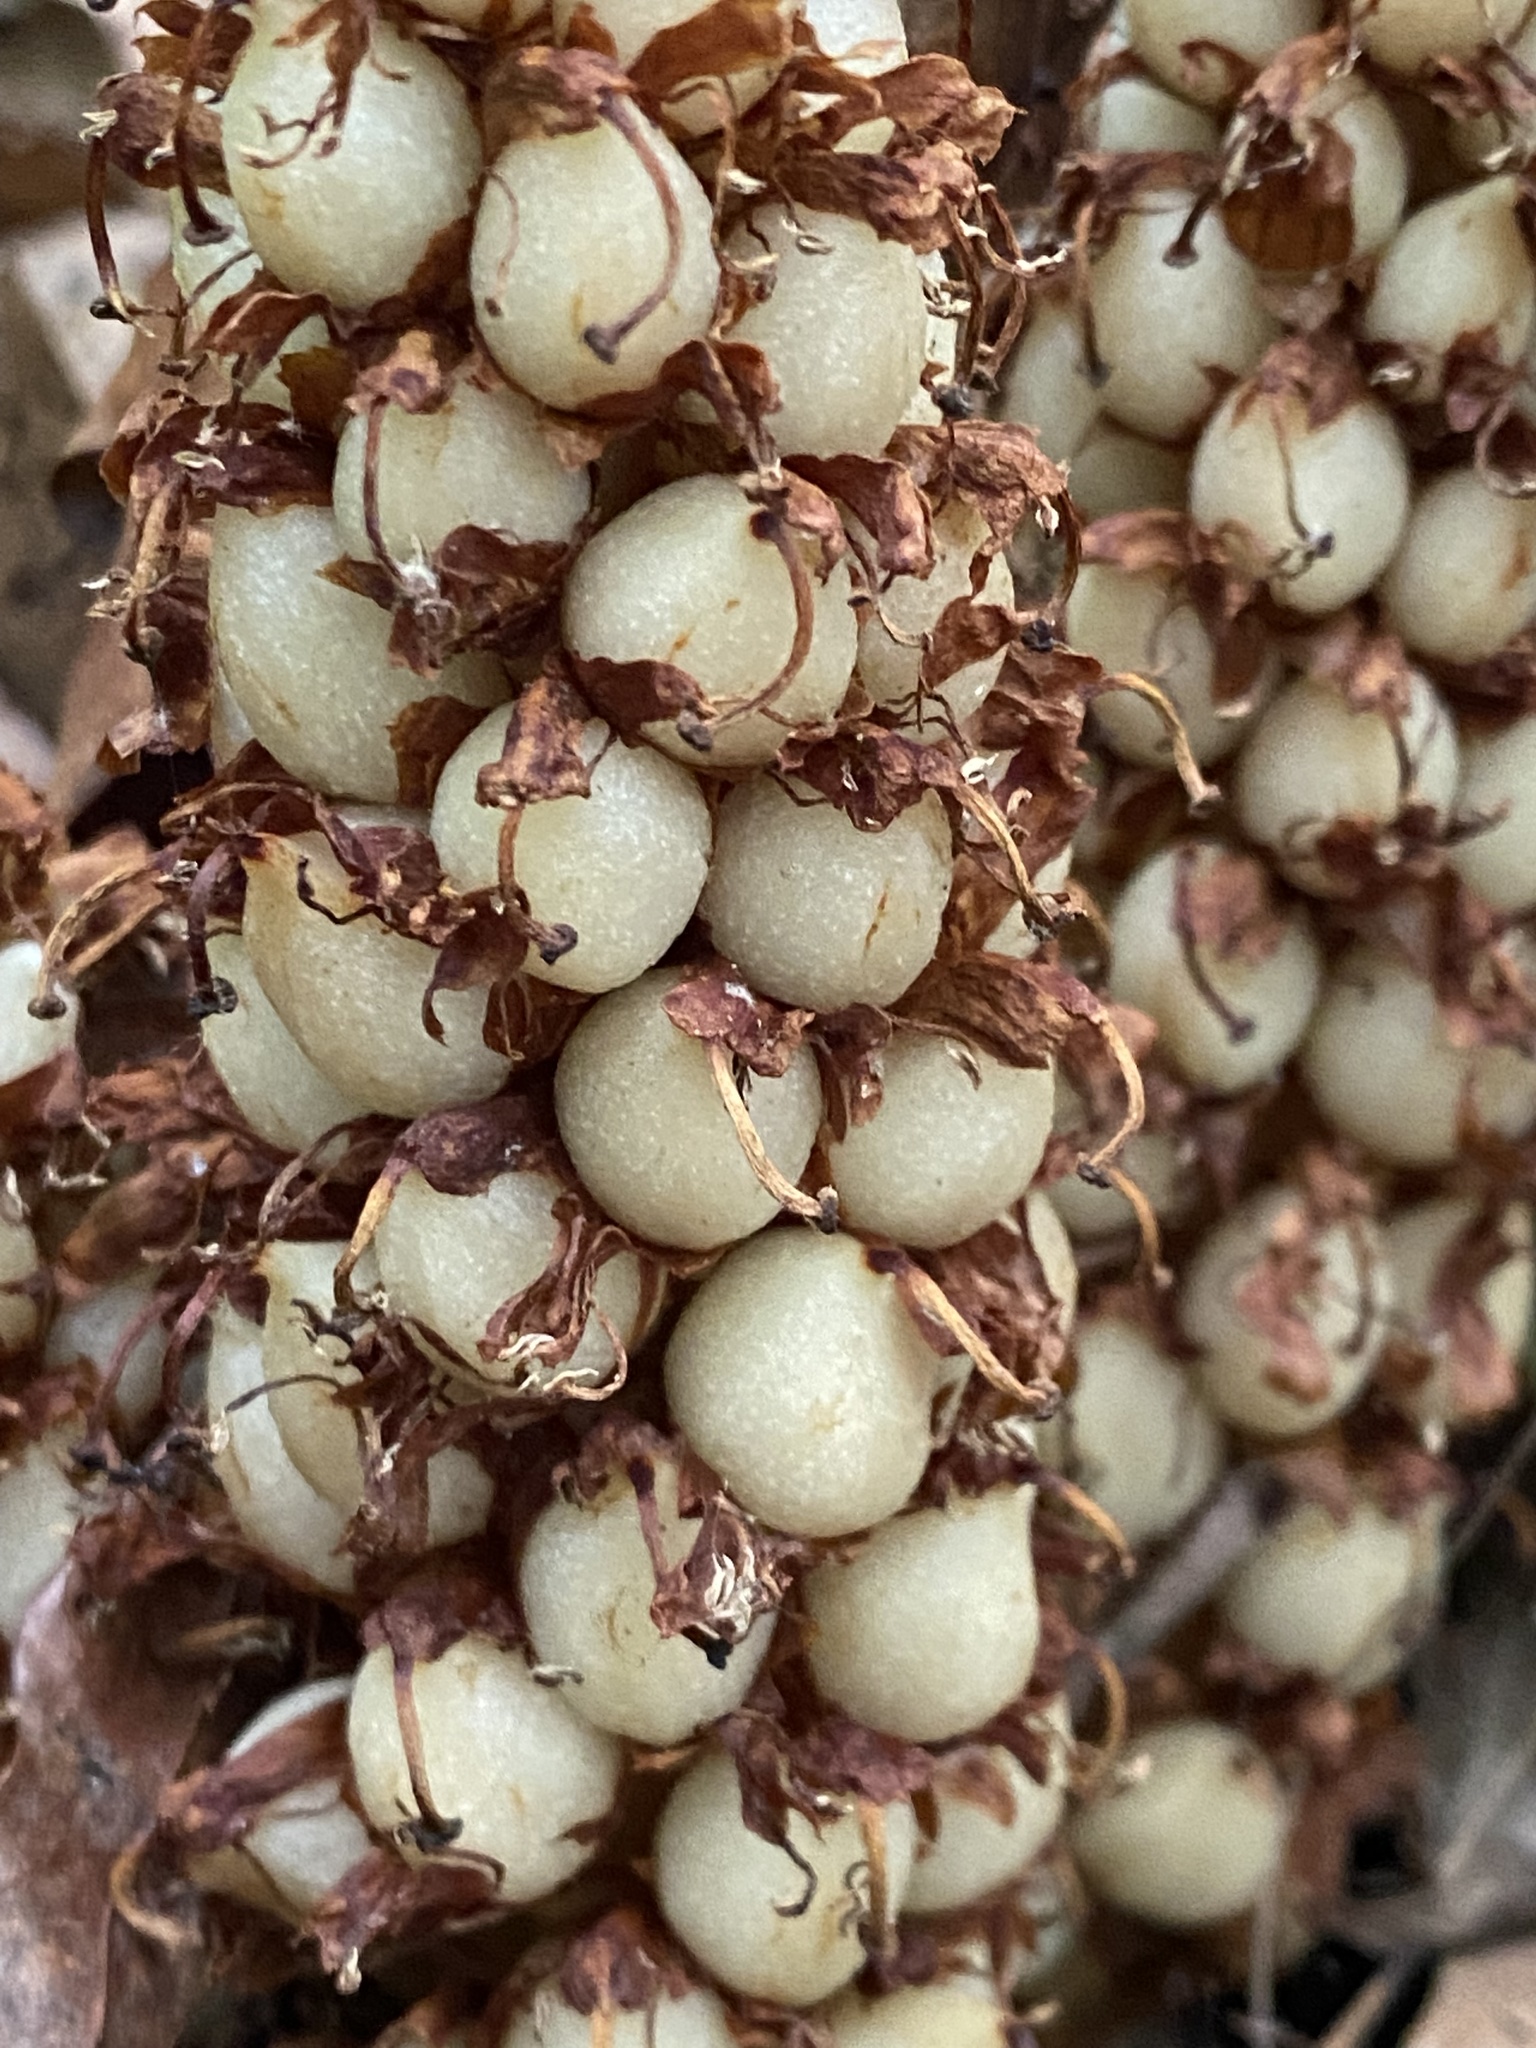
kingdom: Plantae
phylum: Tracheophyta
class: Magnoliopsida
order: Lamiales
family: Orobanchaceae
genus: Conopholis
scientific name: Conopholis americana
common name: American cancer-root
